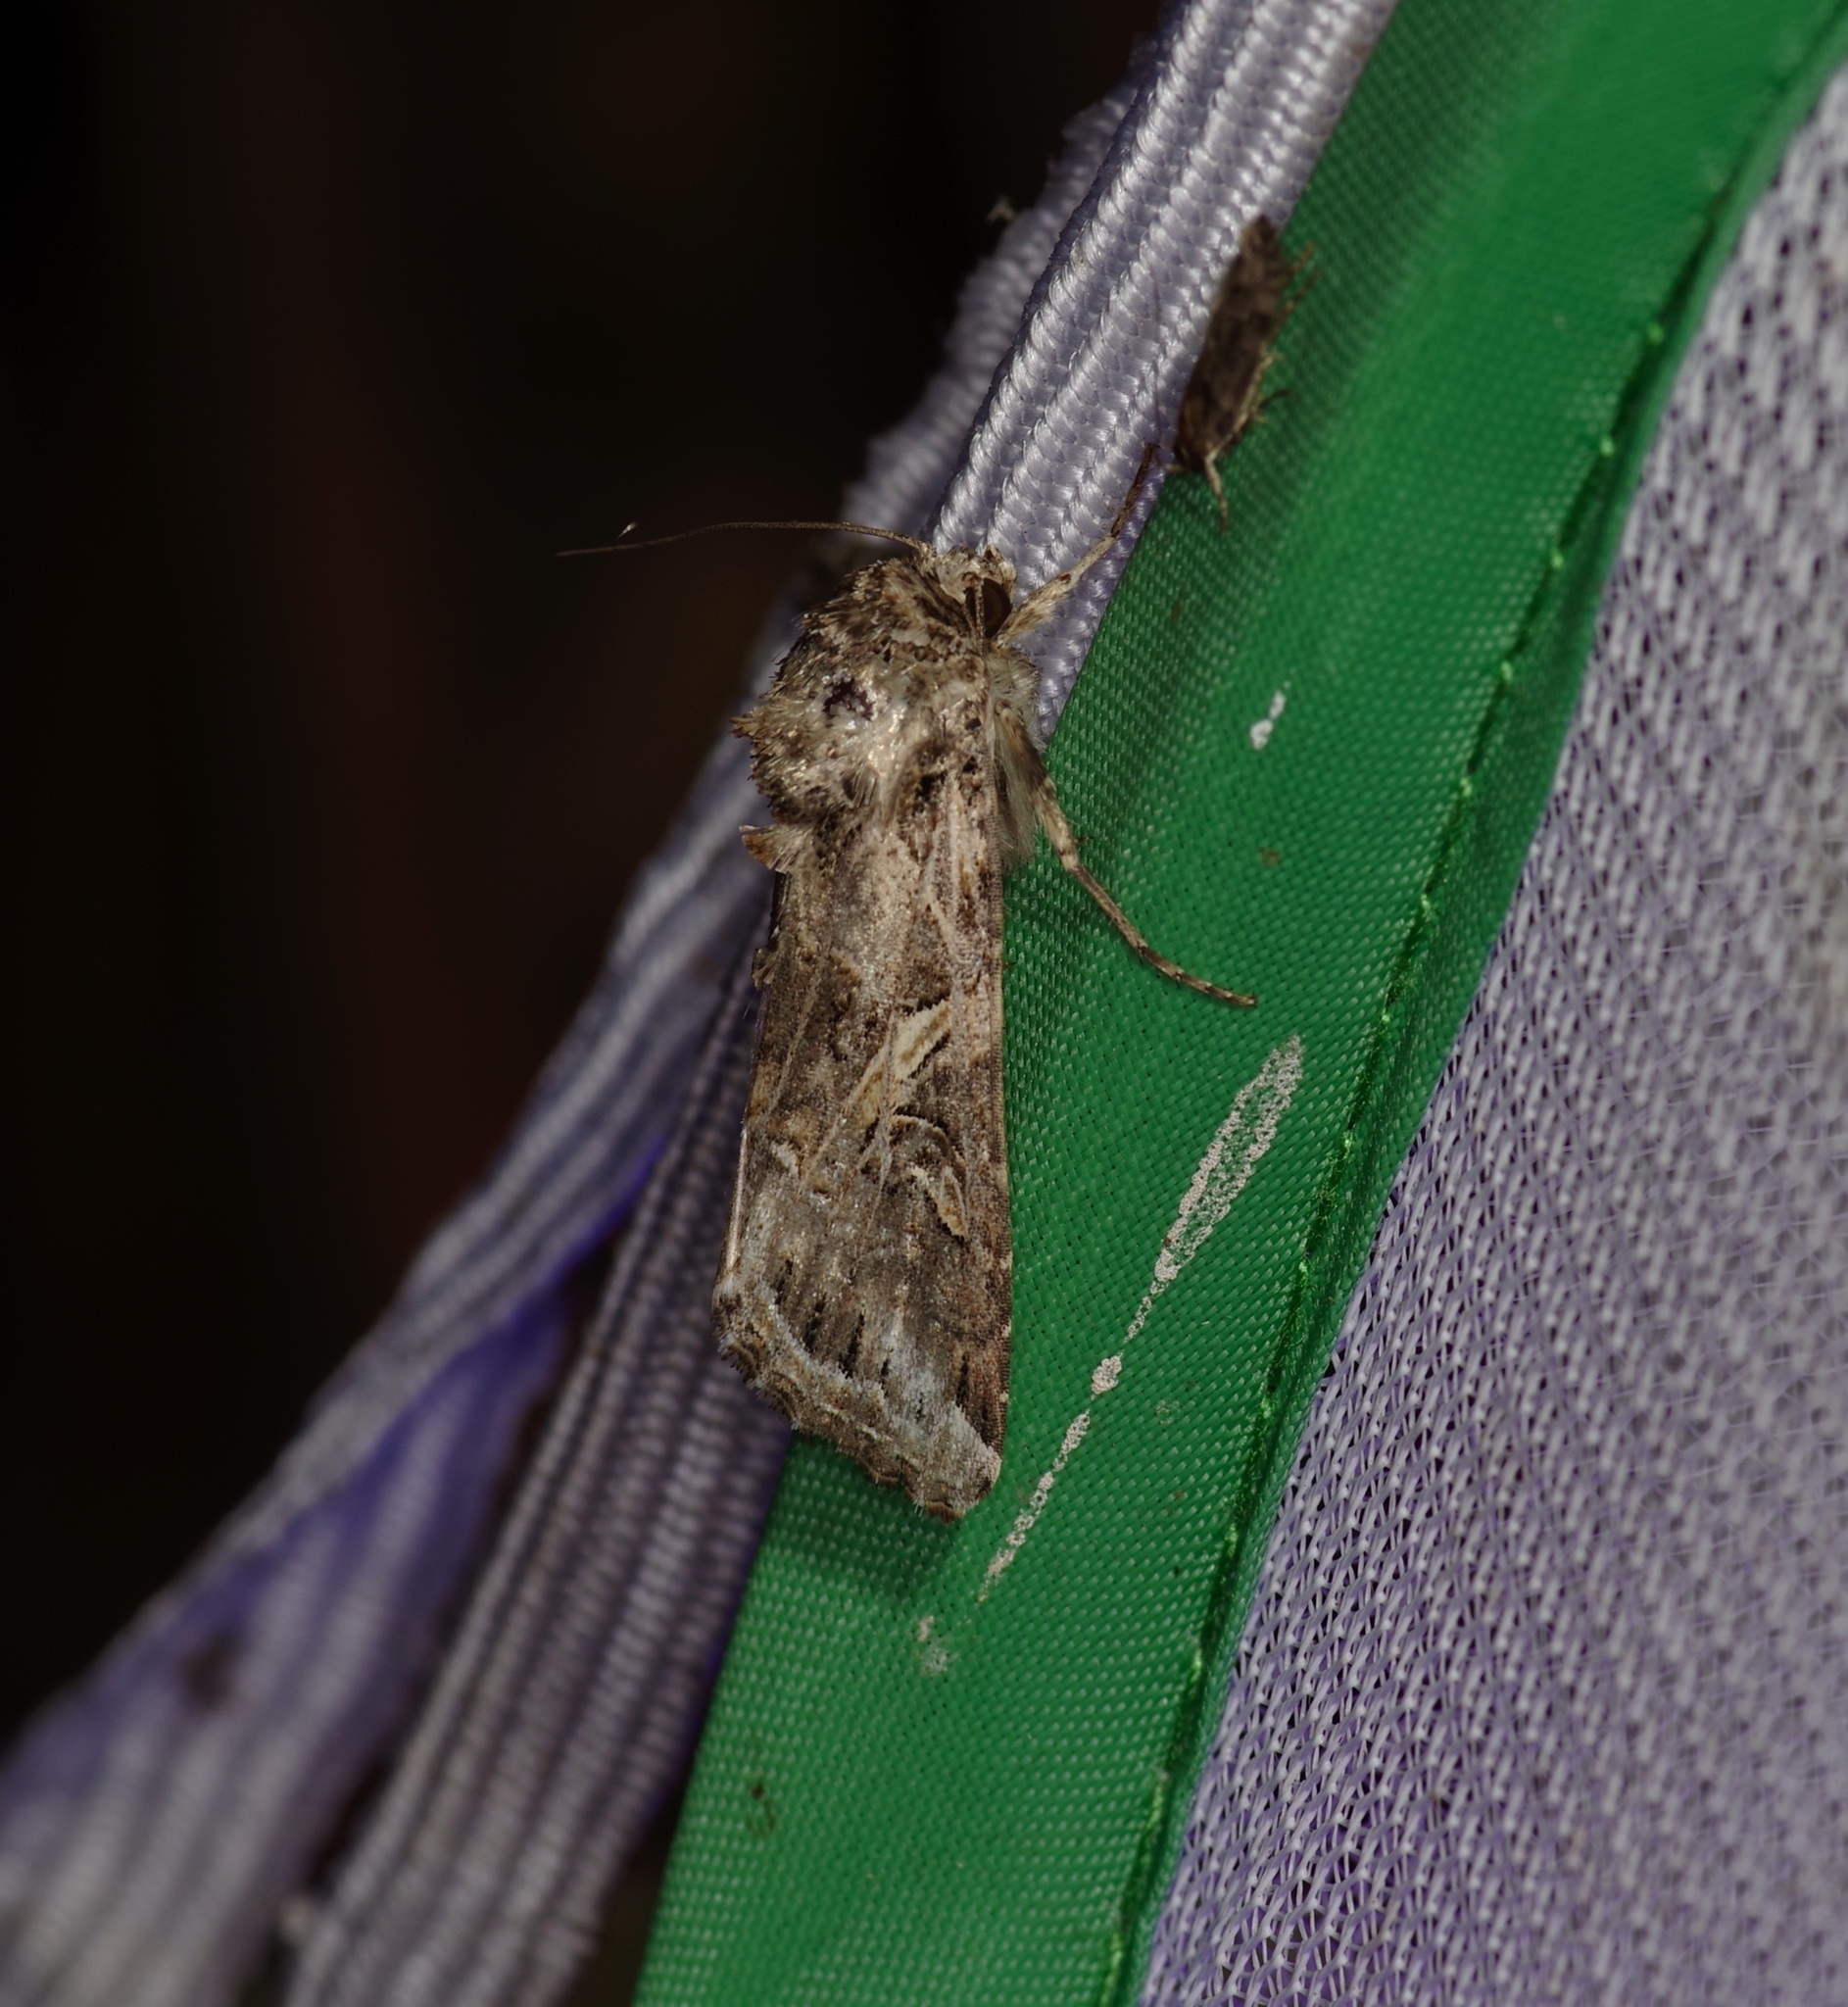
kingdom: Animalia
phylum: Arthropoda
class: Insecta
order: Lepidoptera
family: Noctuidae
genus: Spodoptera
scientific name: Spodoptera ornithogalli
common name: Yellow-striped armyworm
